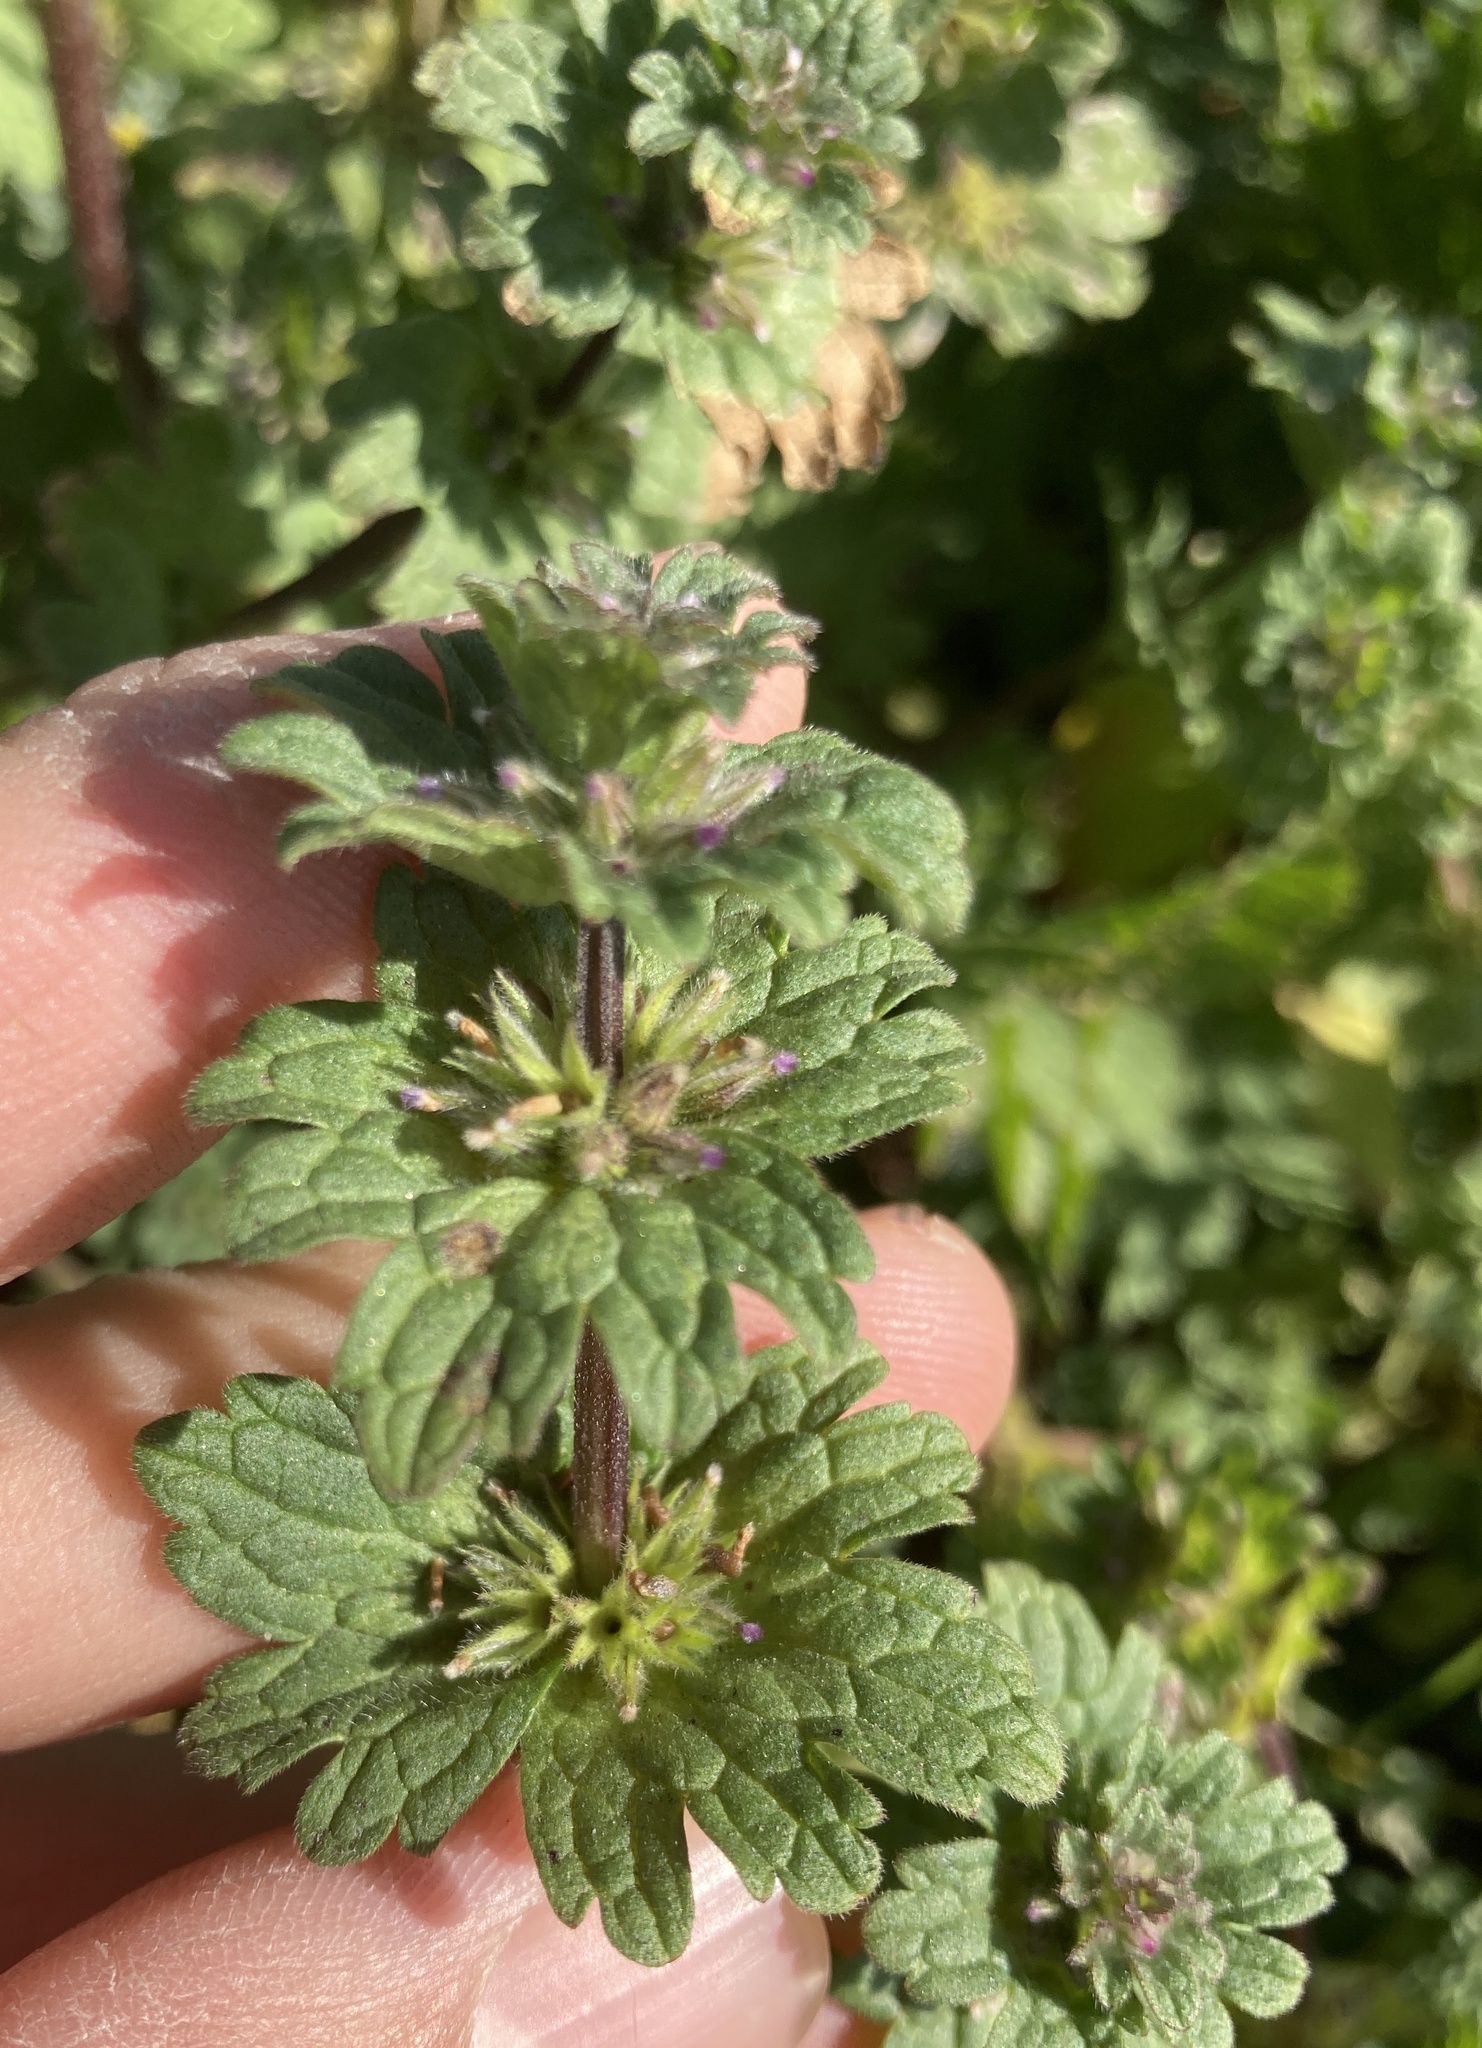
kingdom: Plantae
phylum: Tracheophyta
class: Magnoliopsida
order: Lamiales
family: Lamiaceae
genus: Lamium
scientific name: Lamium amplexicaule
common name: Henbit dead-nettle
